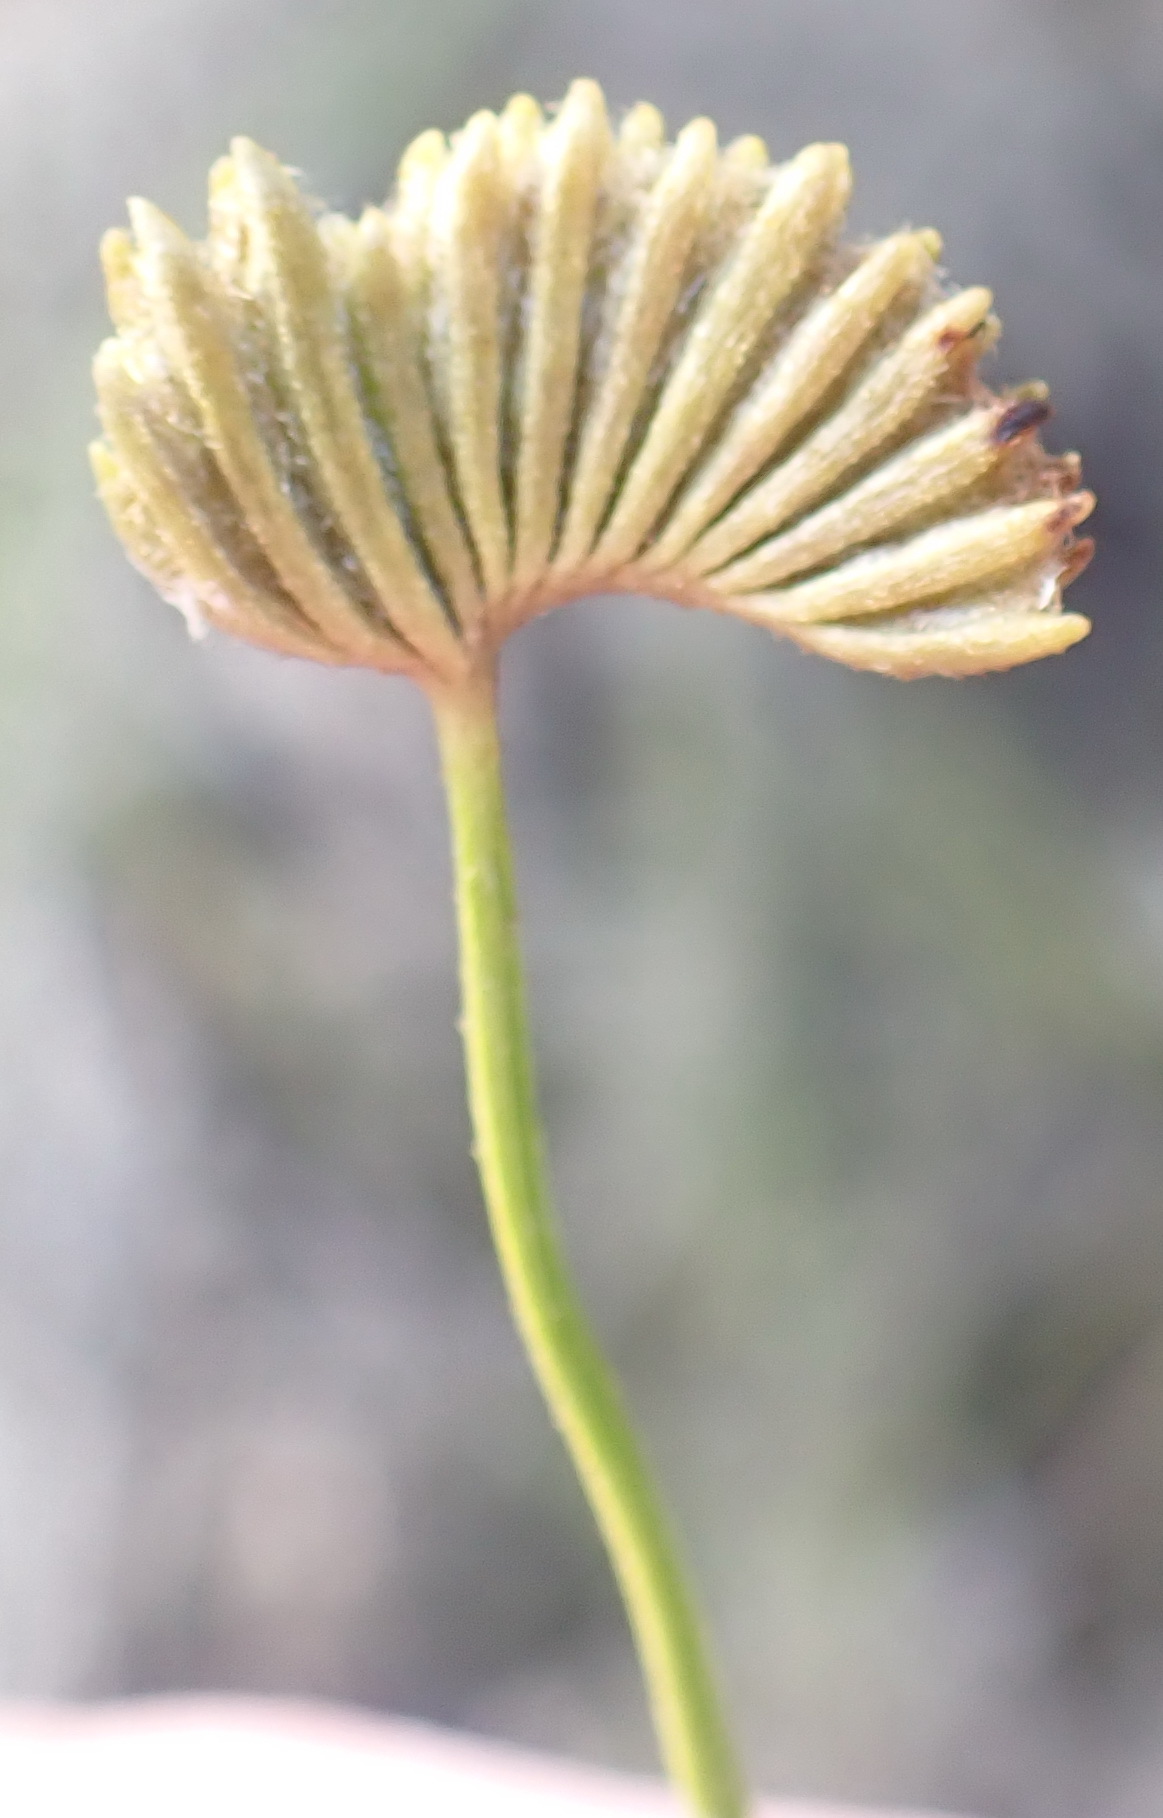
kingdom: Plantae
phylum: Tracheophyta
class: Polypodiopsida
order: Schizaeales
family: Schizaeaceae
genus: Schizaea
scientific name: Schizaea pectinata
